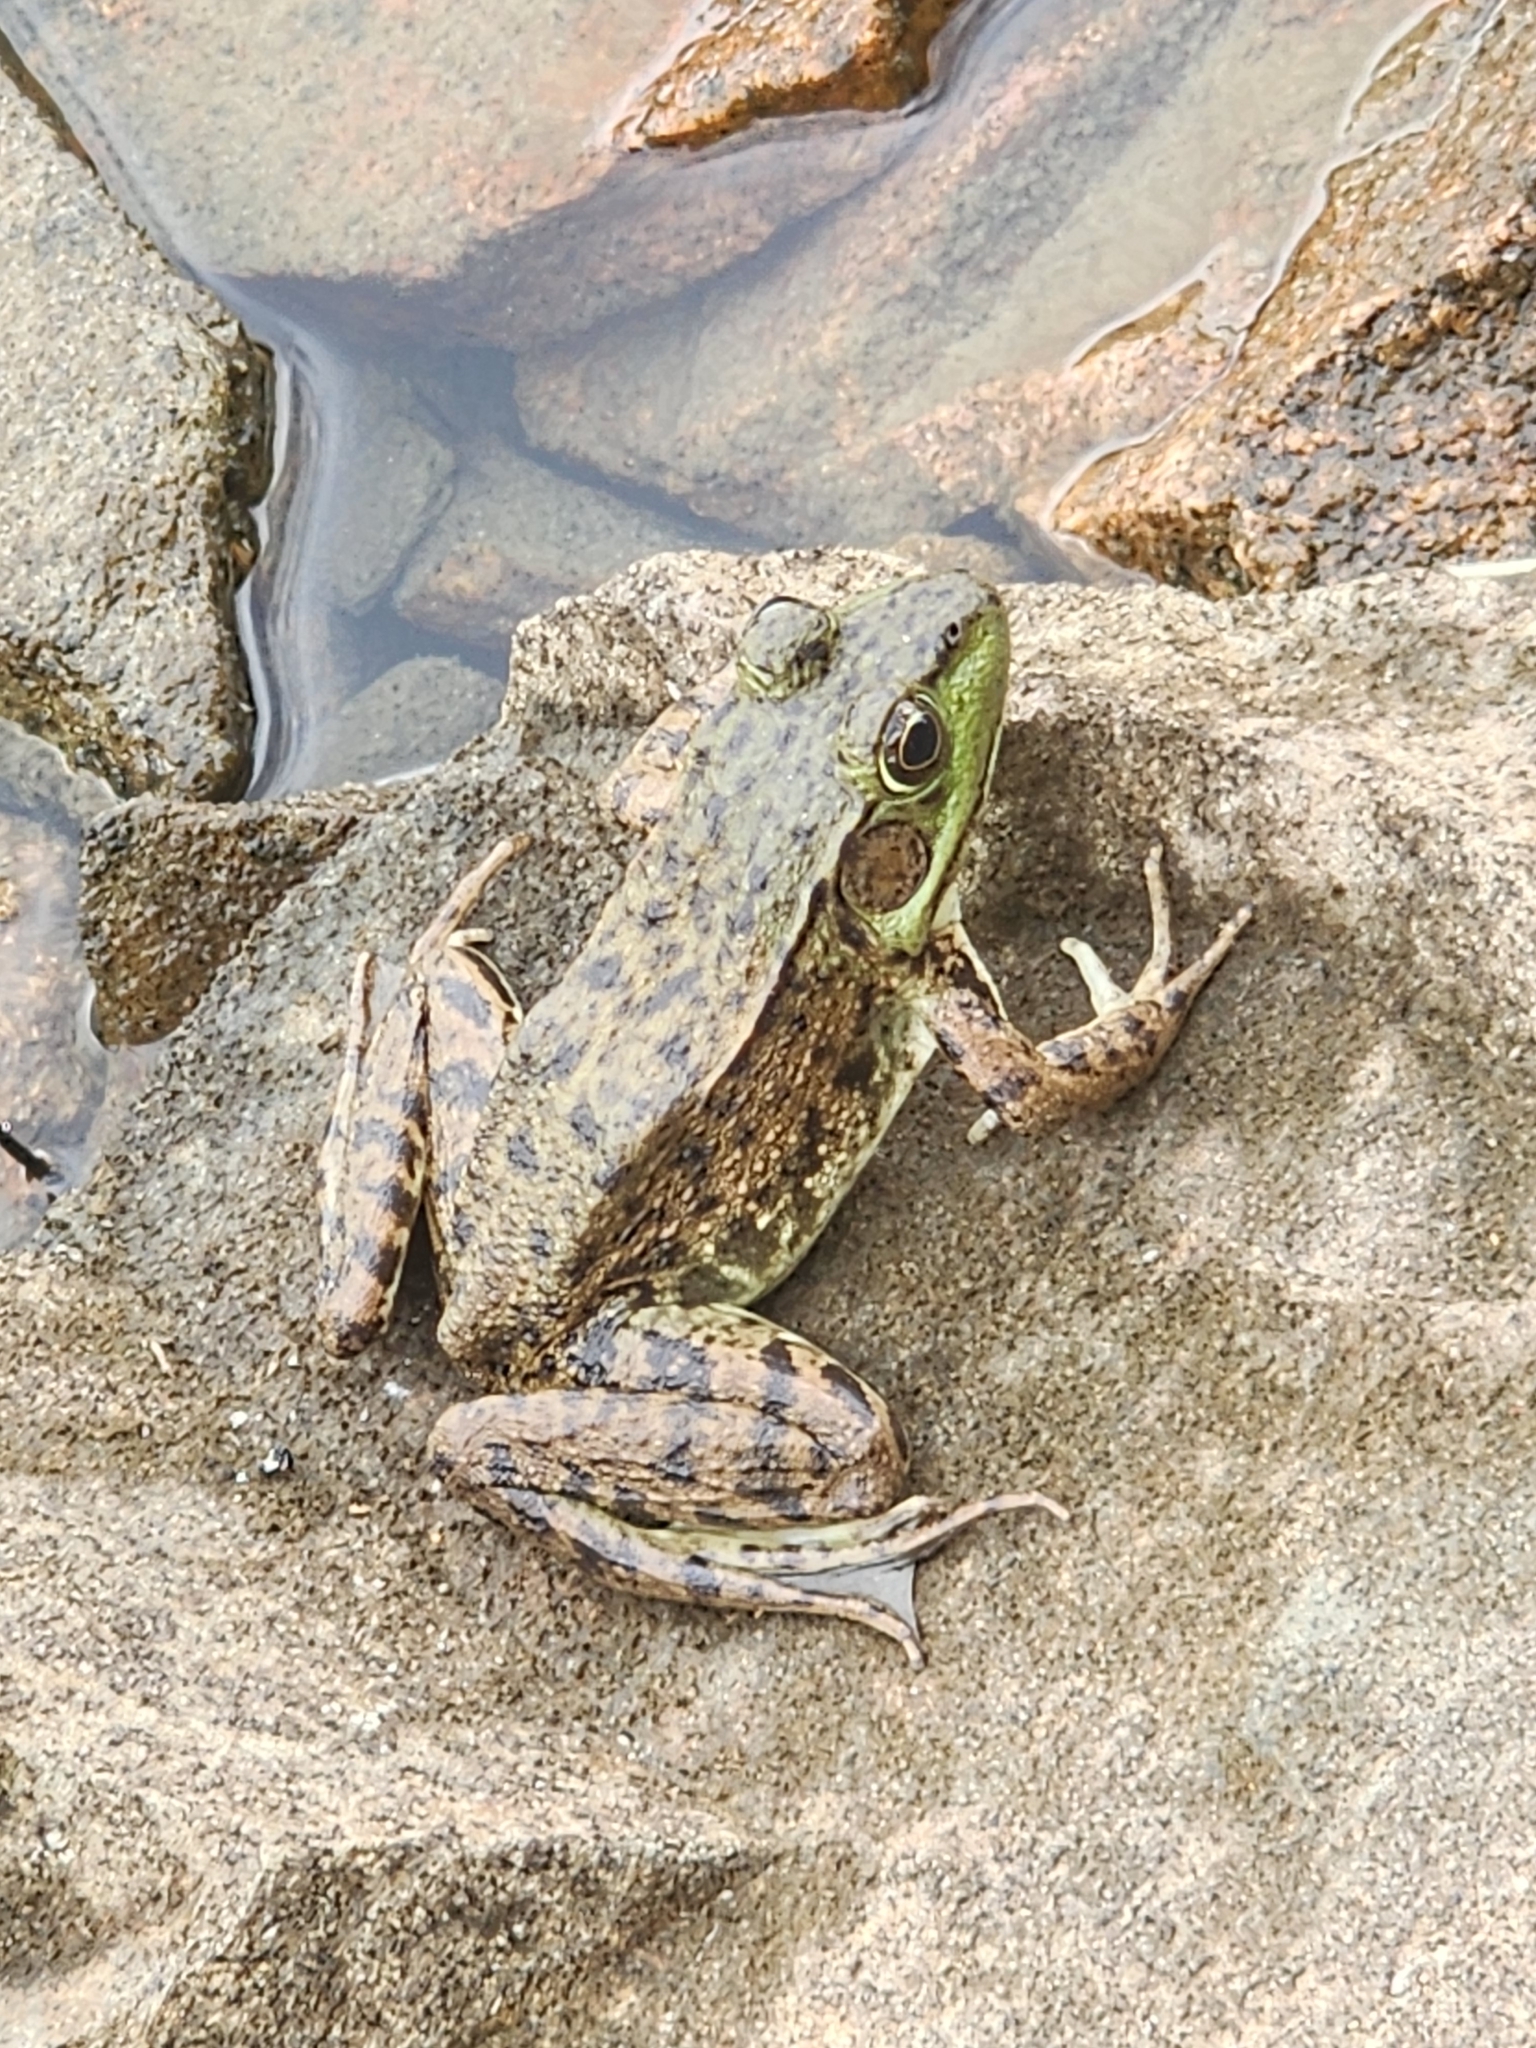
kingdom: Animalia
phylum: Chordata
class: Amphibia
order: Anura
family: Ranidae
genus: Lithobates
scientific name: Lithobates clamitans
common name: Green frog
